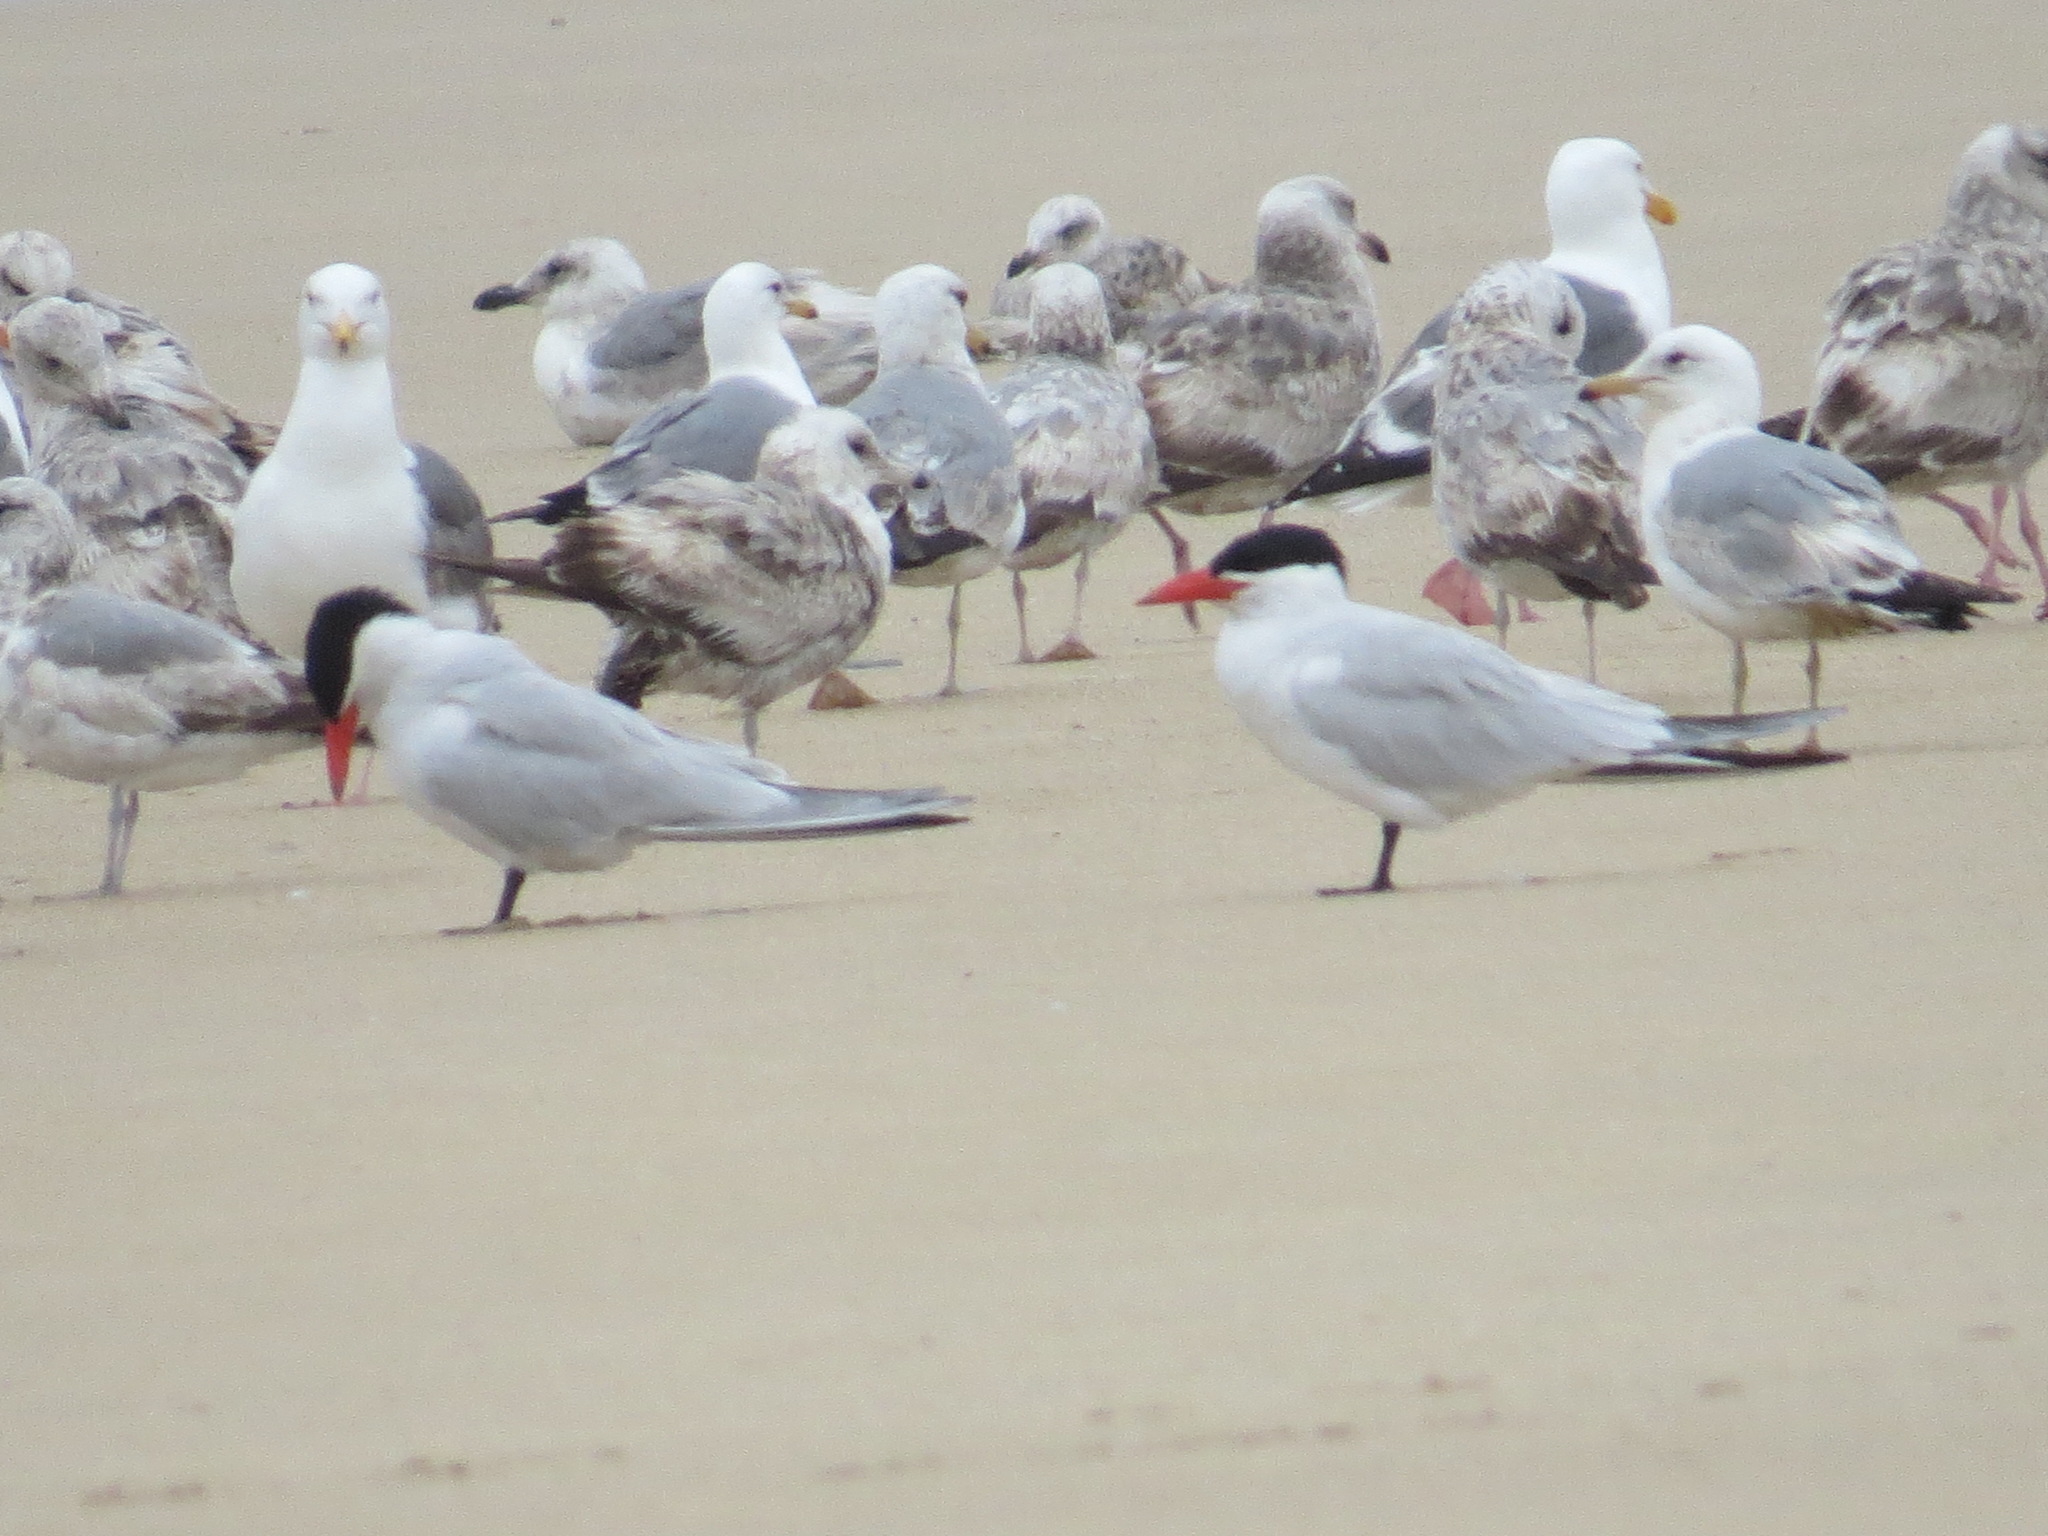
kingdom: Animalia
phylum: Chordata
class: Aves
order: Charadriiformes
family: Laridae
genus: Hydroprogne
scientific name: Hydroprogne caspia
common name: Caspian tern
